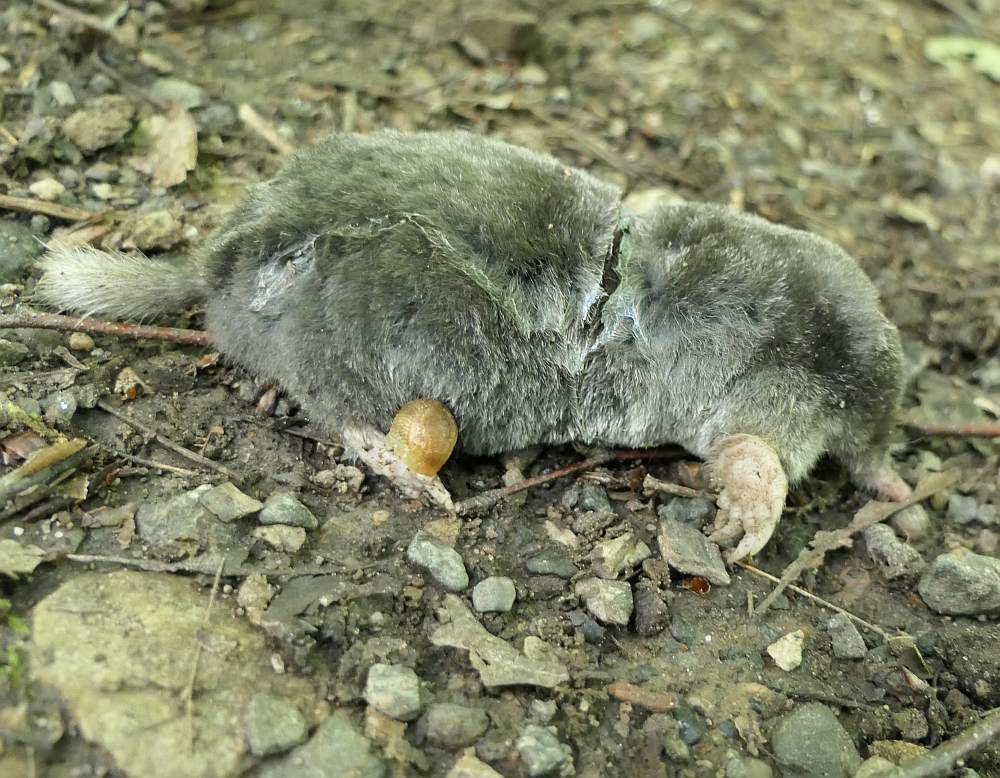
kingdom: Animalia
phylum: Chordata
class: Mammalia
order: Soricomorpha
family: Talpidae
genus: Parascalops
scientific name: Parascalops breweri
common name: Hairy-tailed mole
